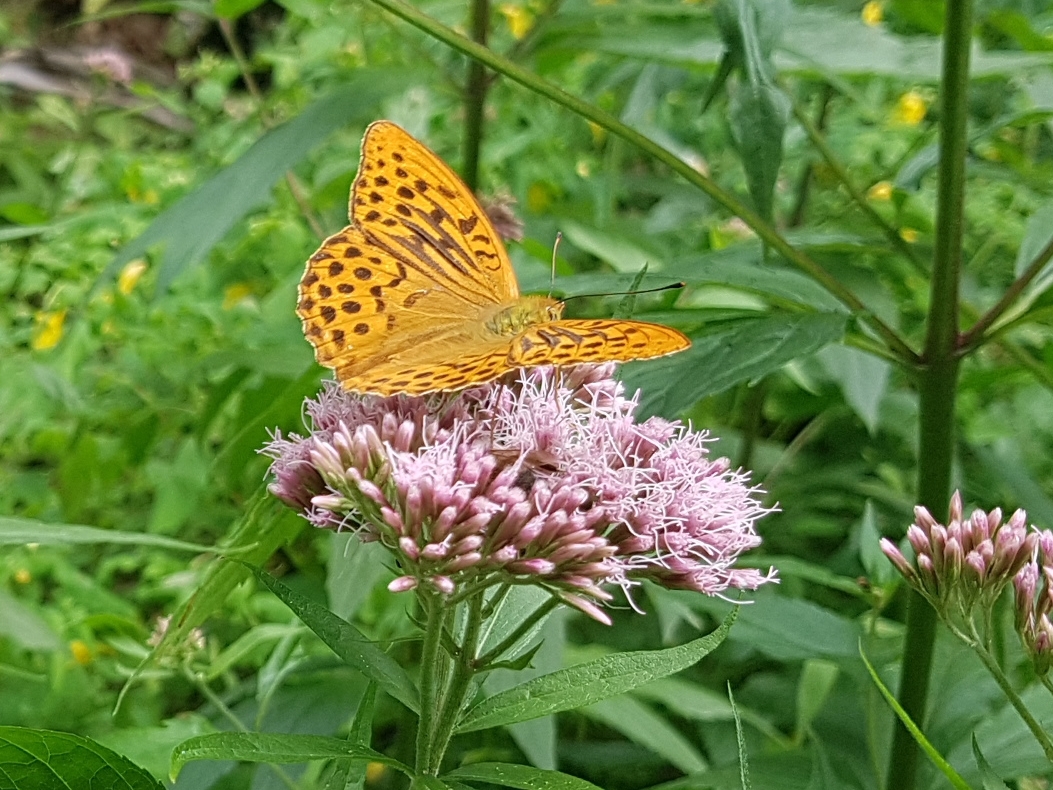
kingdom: Animalia
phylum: Arthropoda
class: Insecta
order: Lepidoptera
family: Nymphalidae
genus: Argynnis
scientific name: Argynnis paphia
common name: Silver-washed fritillary
